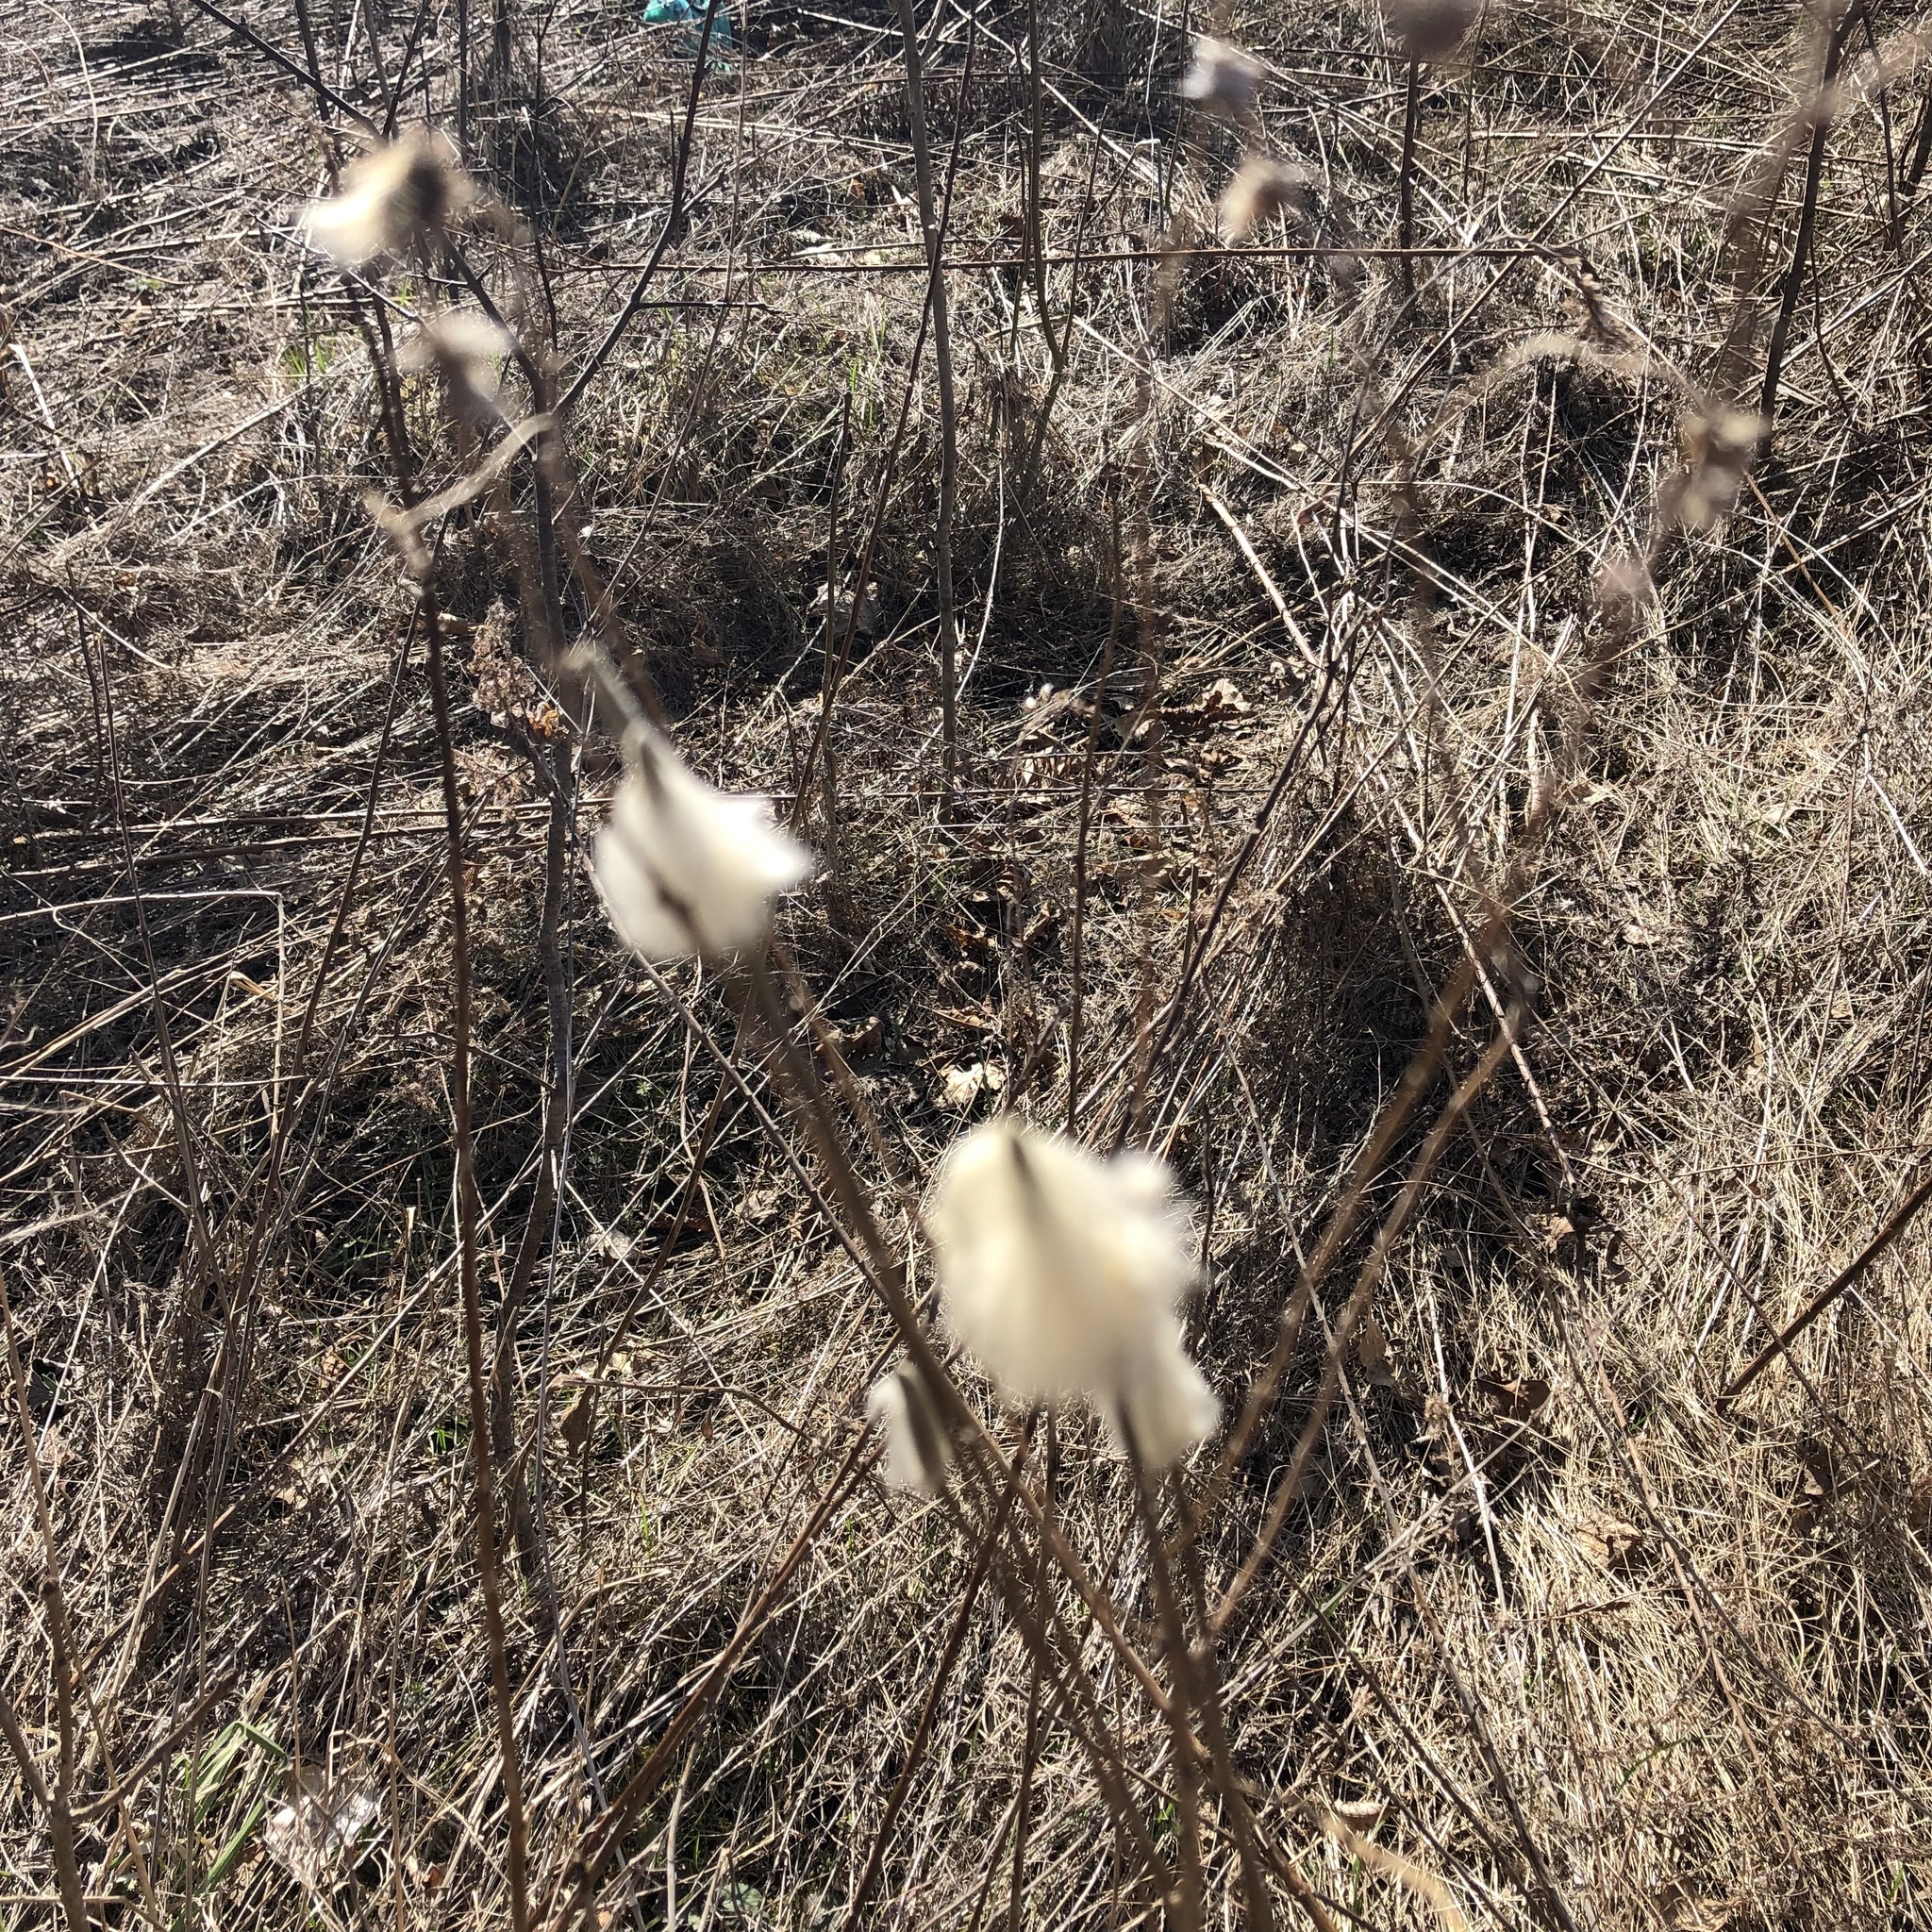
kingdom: Plantae
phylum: Tracheophyta
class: Magnoliopsida
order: Ranunculales
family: Ranunculaceae
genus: Anemone
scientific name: Anemone virginiana
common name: Tall anemone
